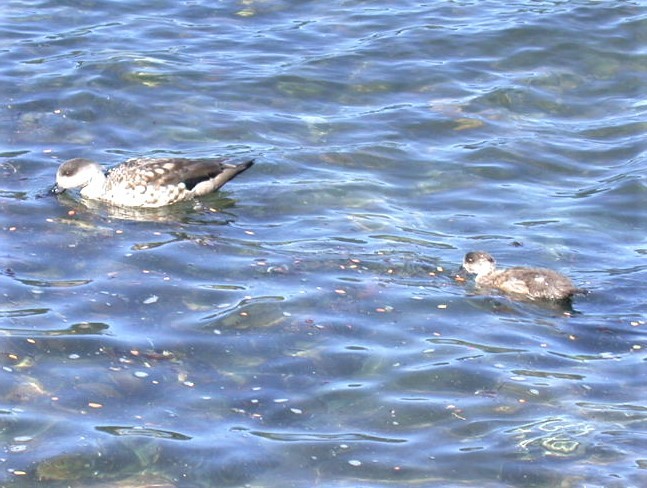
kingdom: Animalia
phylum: Chordata
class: Aves
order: Anseriformes
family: Anatidae
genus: Lophonetta
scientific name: Lophonetta specularioides
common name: Crested duck
